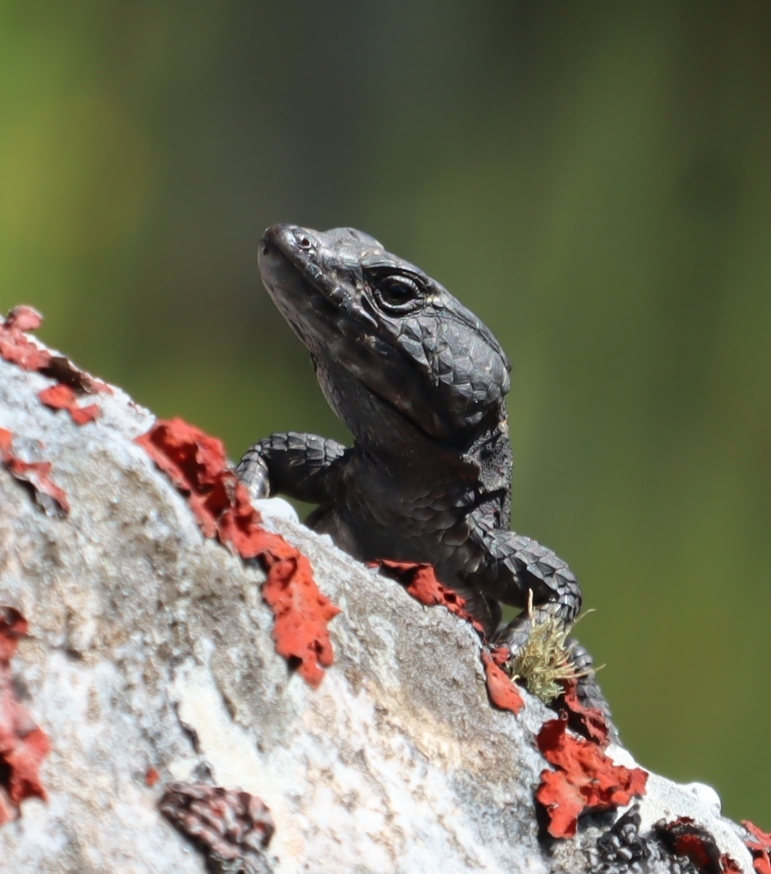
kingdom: Animalia
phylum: Chordata
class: Squamata
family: Cordylidae
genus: Hemicordylus
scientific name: Hemicordylus nebulosus
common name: Dwarf crag lizard
